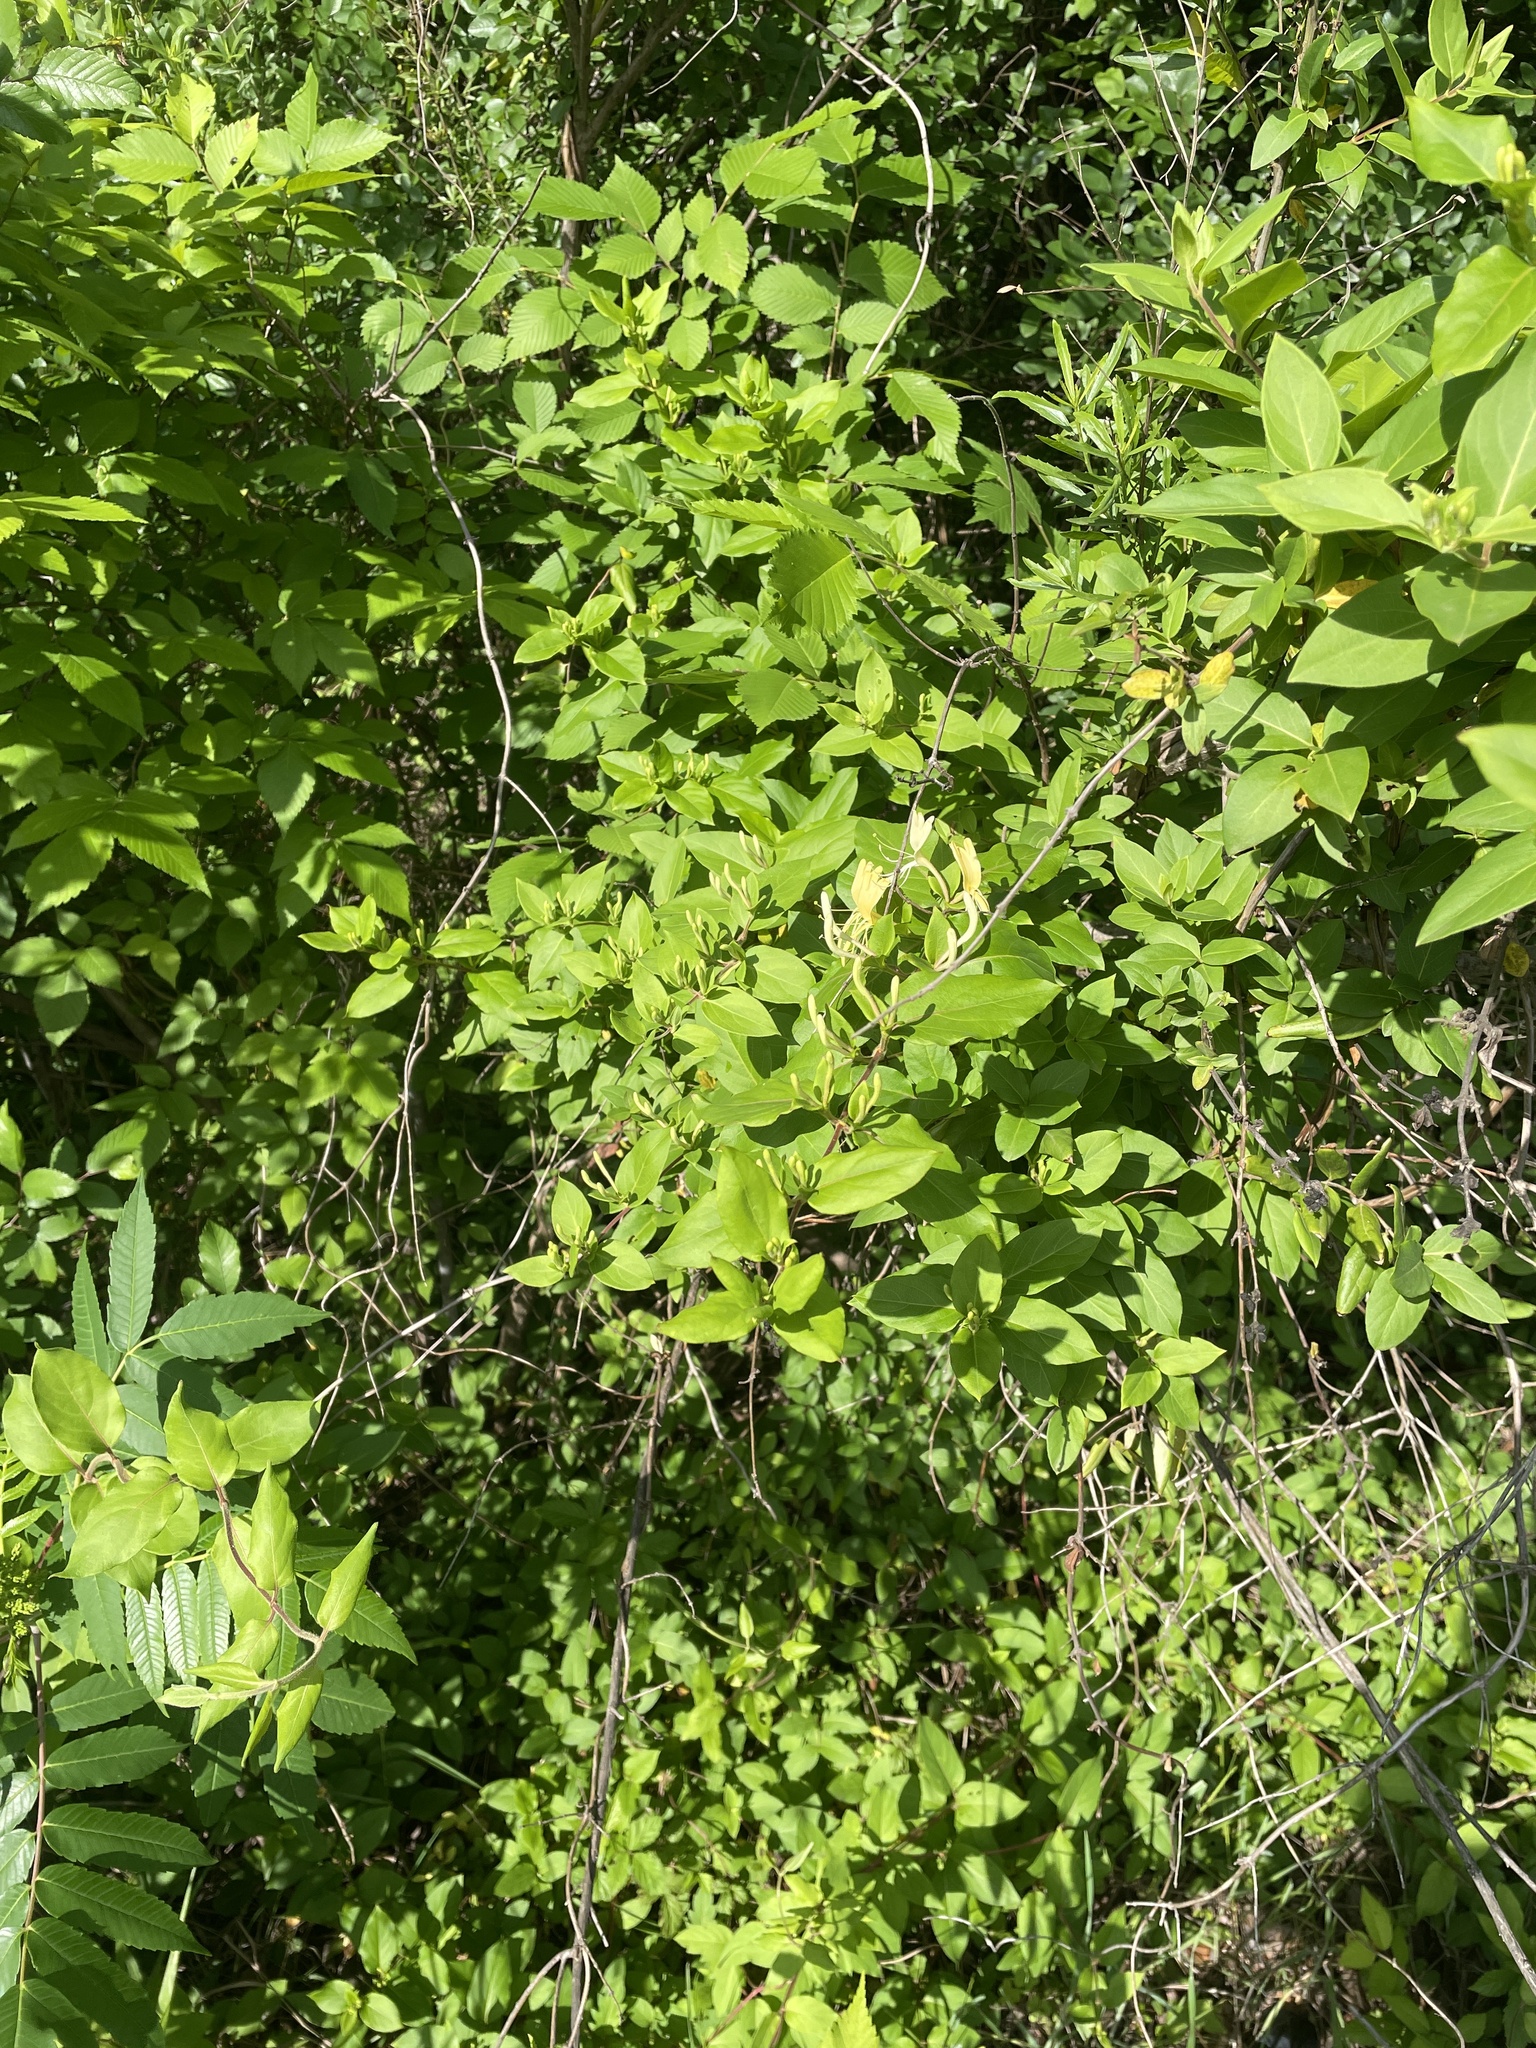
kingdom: Plantae
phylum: Tracheophyta
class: Magnoliopsida
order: Dipsacales
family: Caprifoliaceae
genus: Lonicera
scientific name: Lonicera japonica
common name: Japanese honeysuckle
